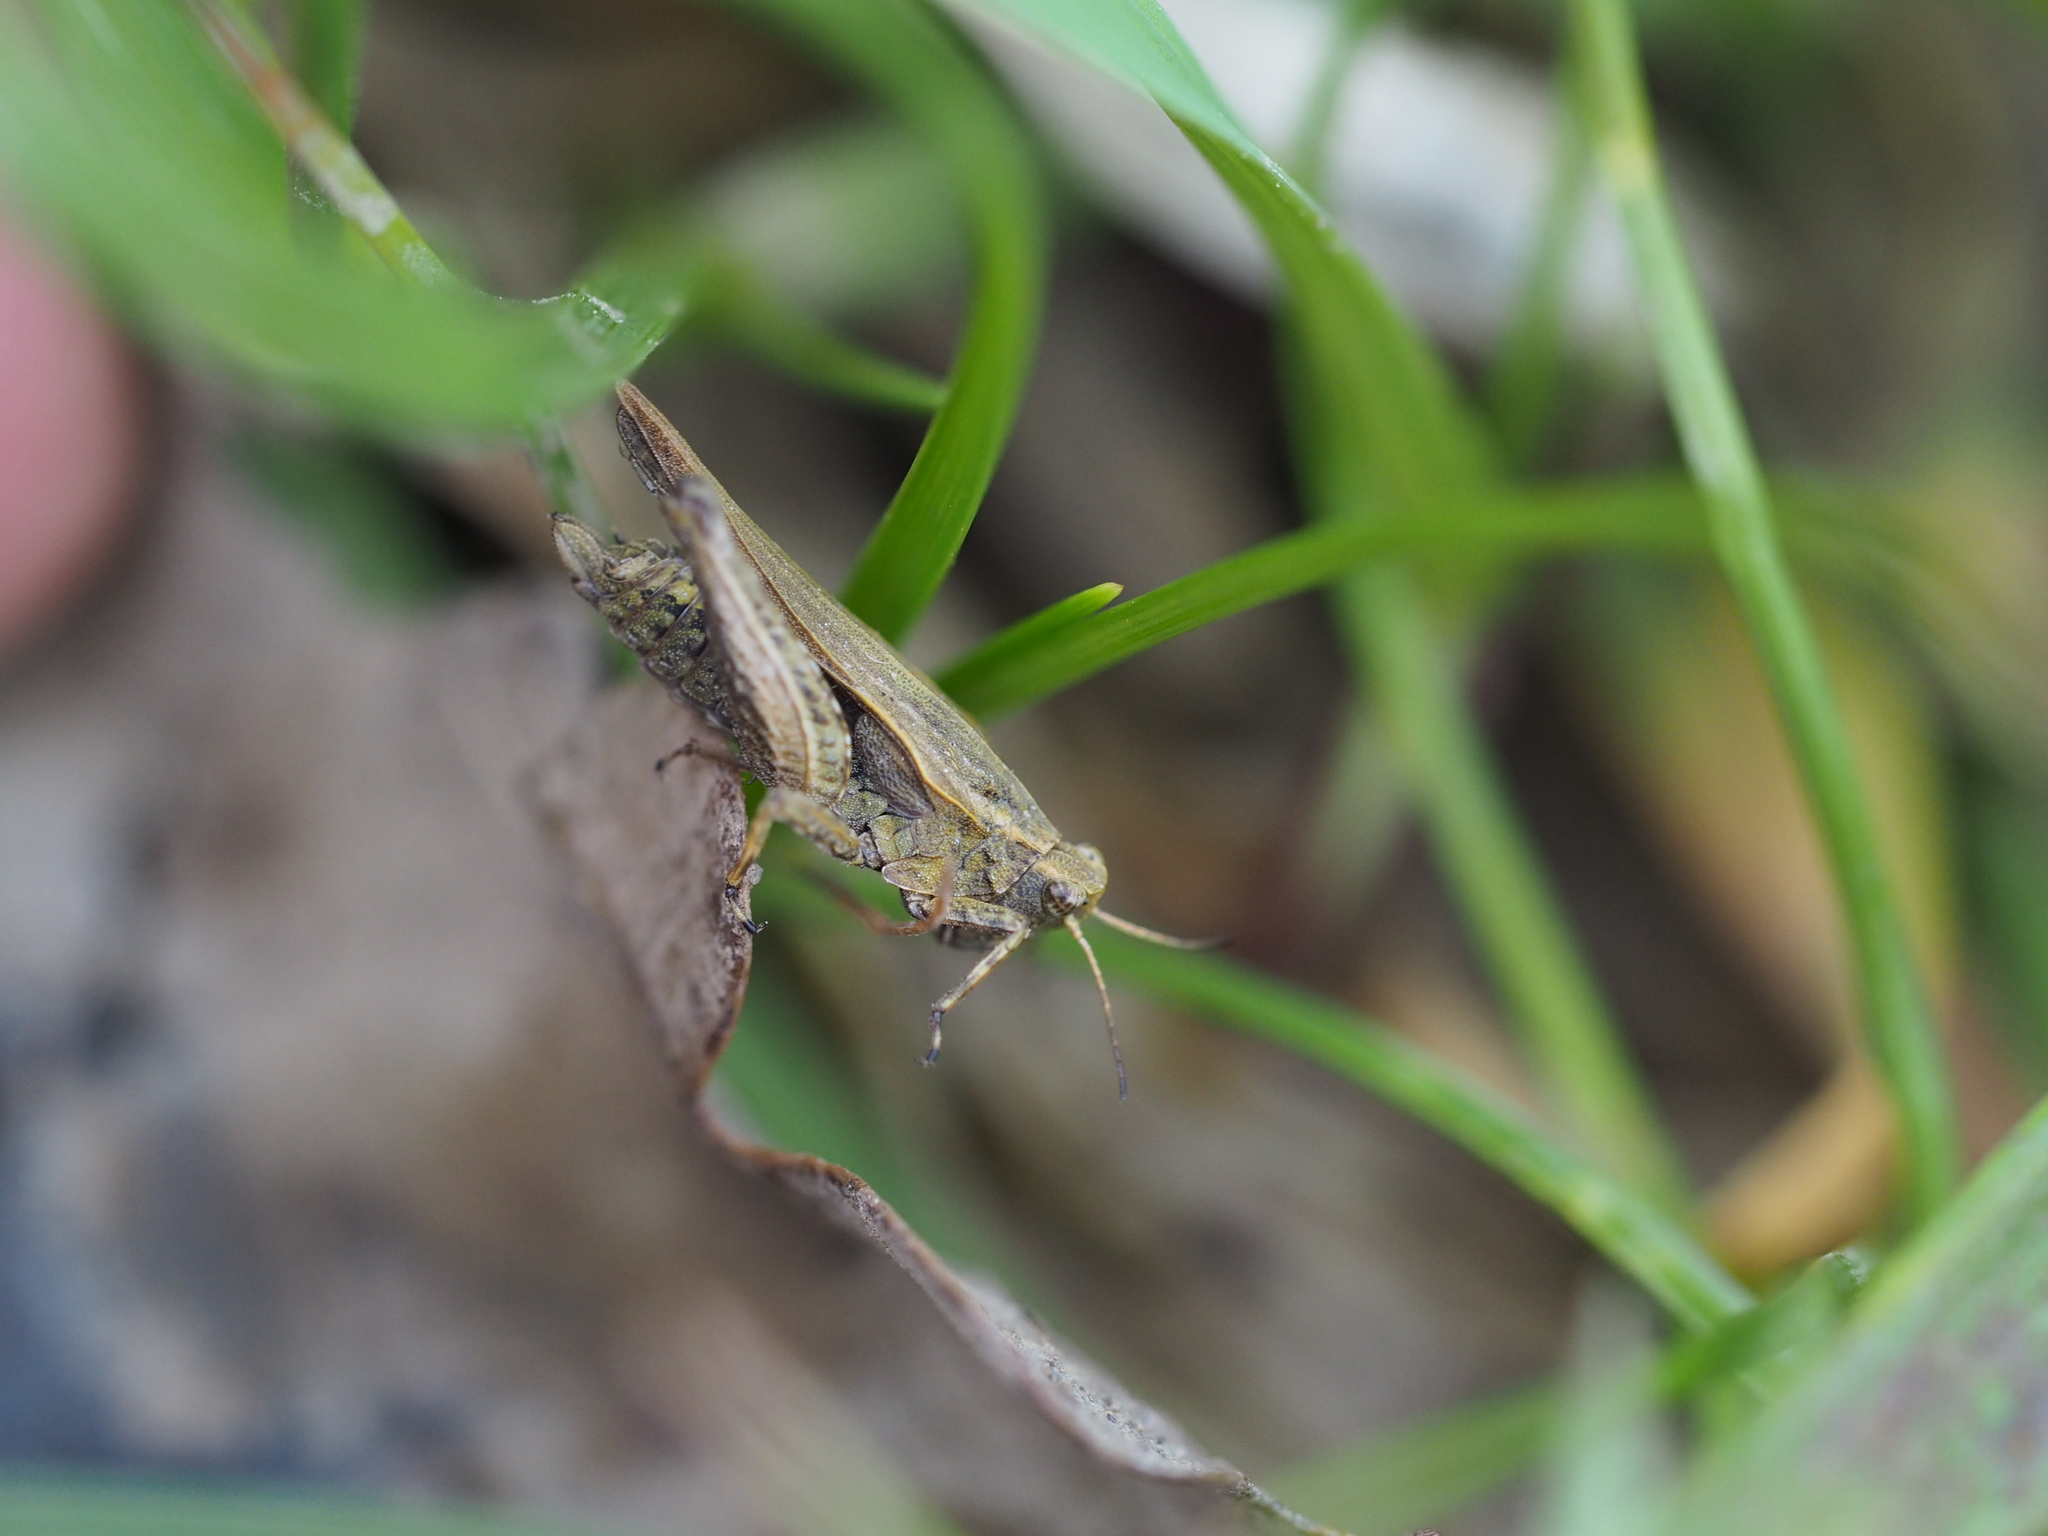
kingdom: Animalia
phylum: Arthropoda
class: Insecta
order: Orthoptera
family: Tetrigidae
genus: Tetrix
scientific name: Tetrix subulata
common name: Slender ground-hopper
